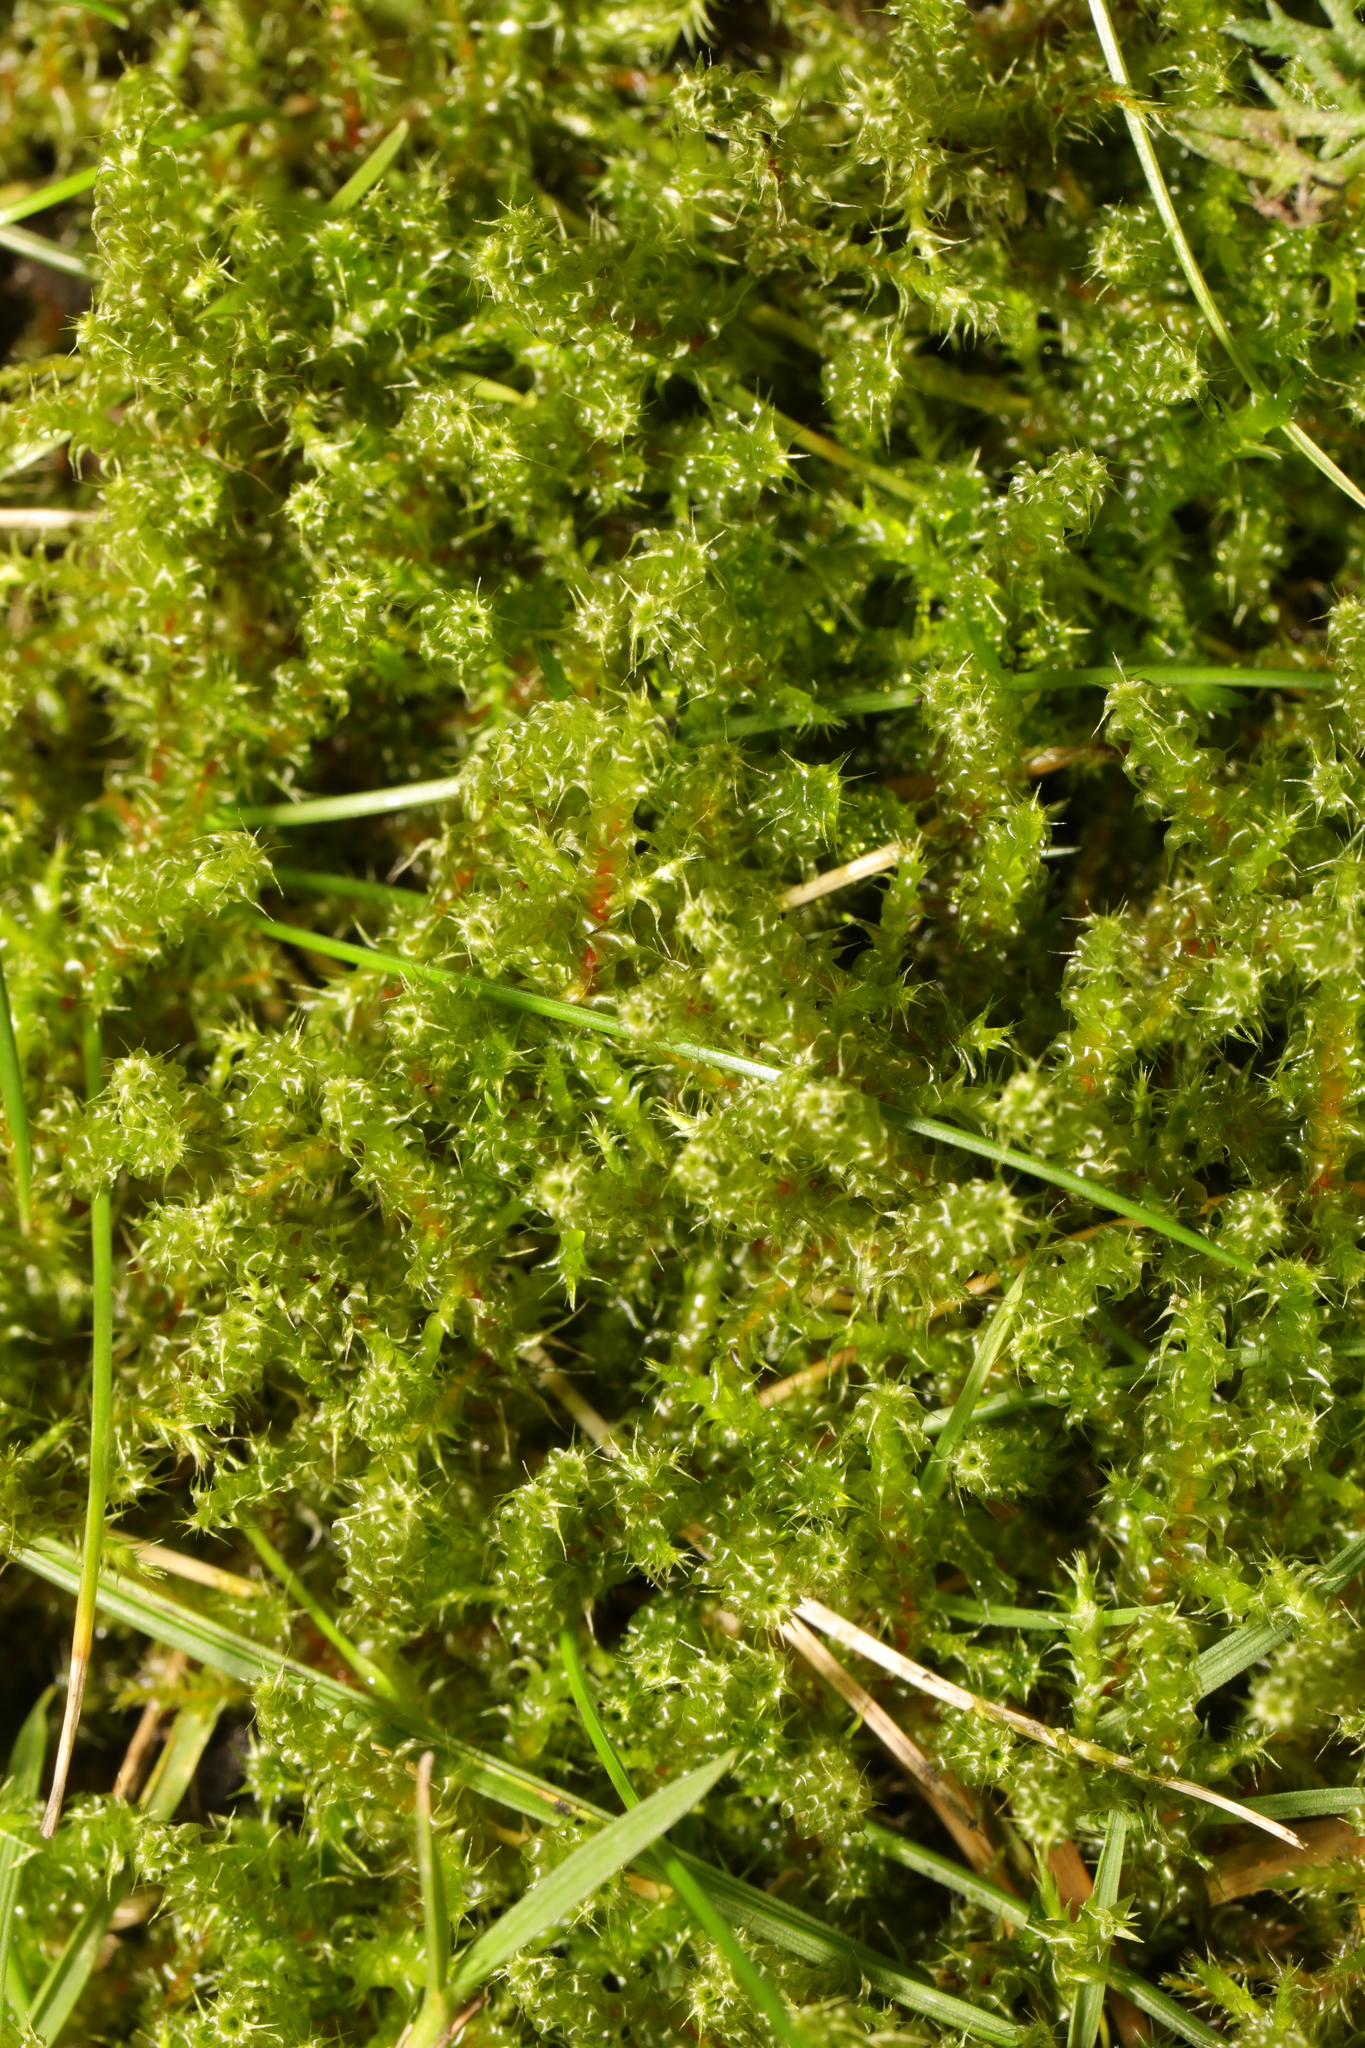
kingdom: Plantae
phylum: Bryophyta
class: Bryopsida
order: Hypnales
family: Hylocomiaceae
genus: Rhytidiadelphus
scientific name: Rhytidiadelphus squarrosus
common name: Springy turf-moss
